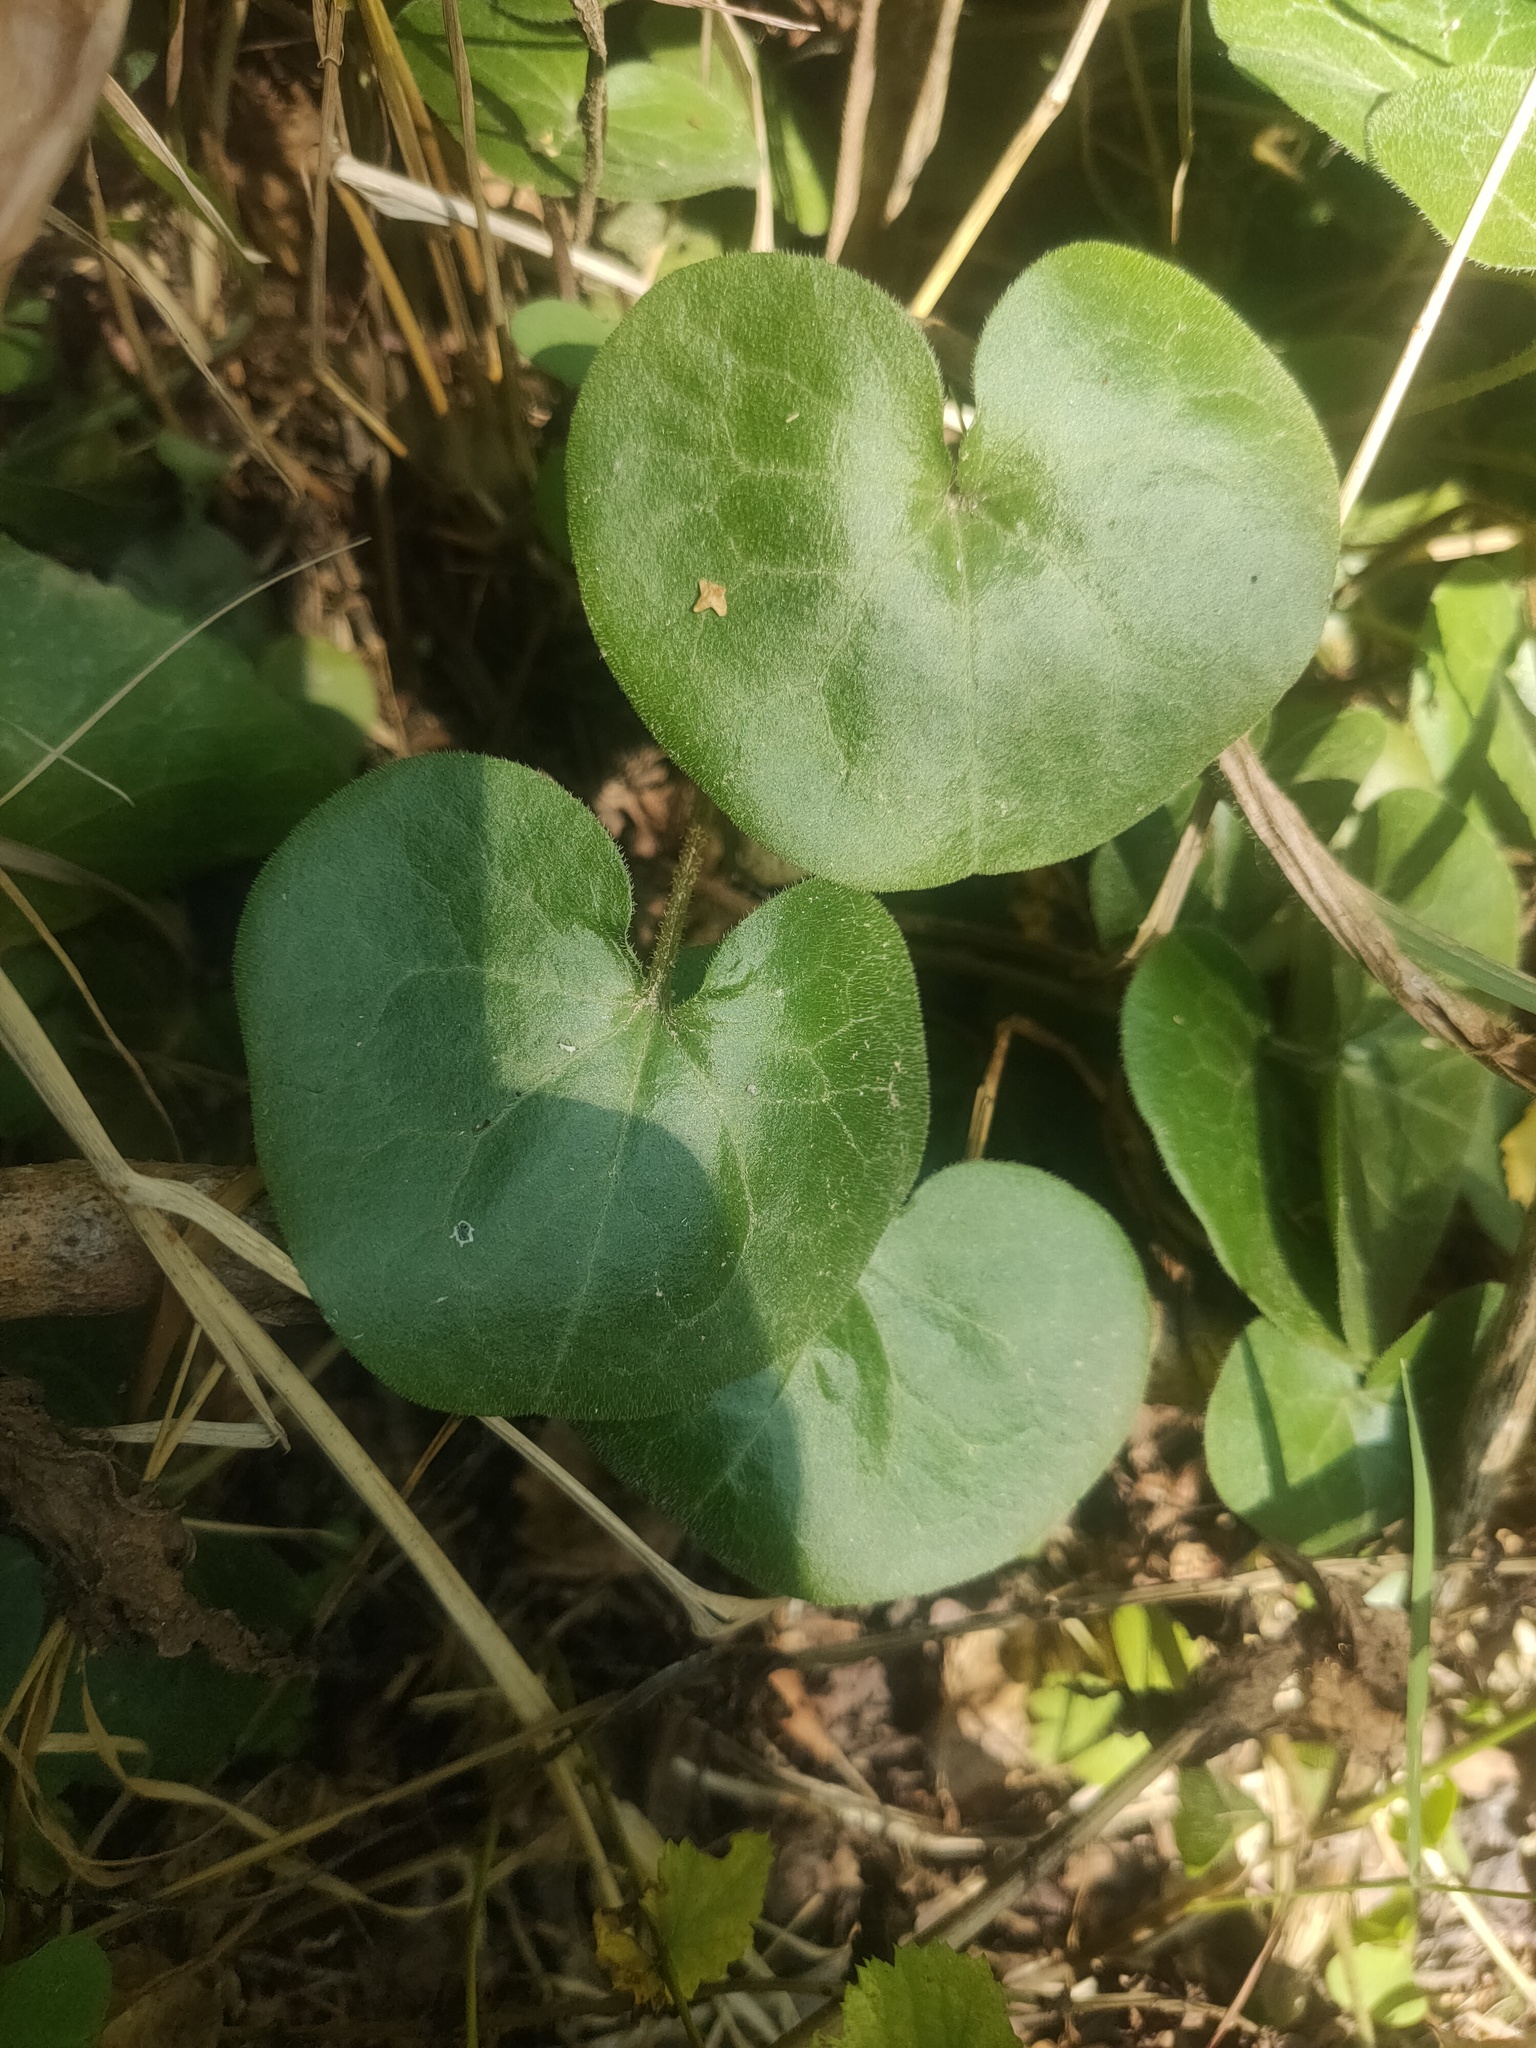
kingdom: Plantae
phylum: Tracheophyta
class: Magnoliopsida
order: Piperales
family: Aristolochiaceae
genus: Asarum
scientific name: Asarum europaeum
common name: Asarabacca
